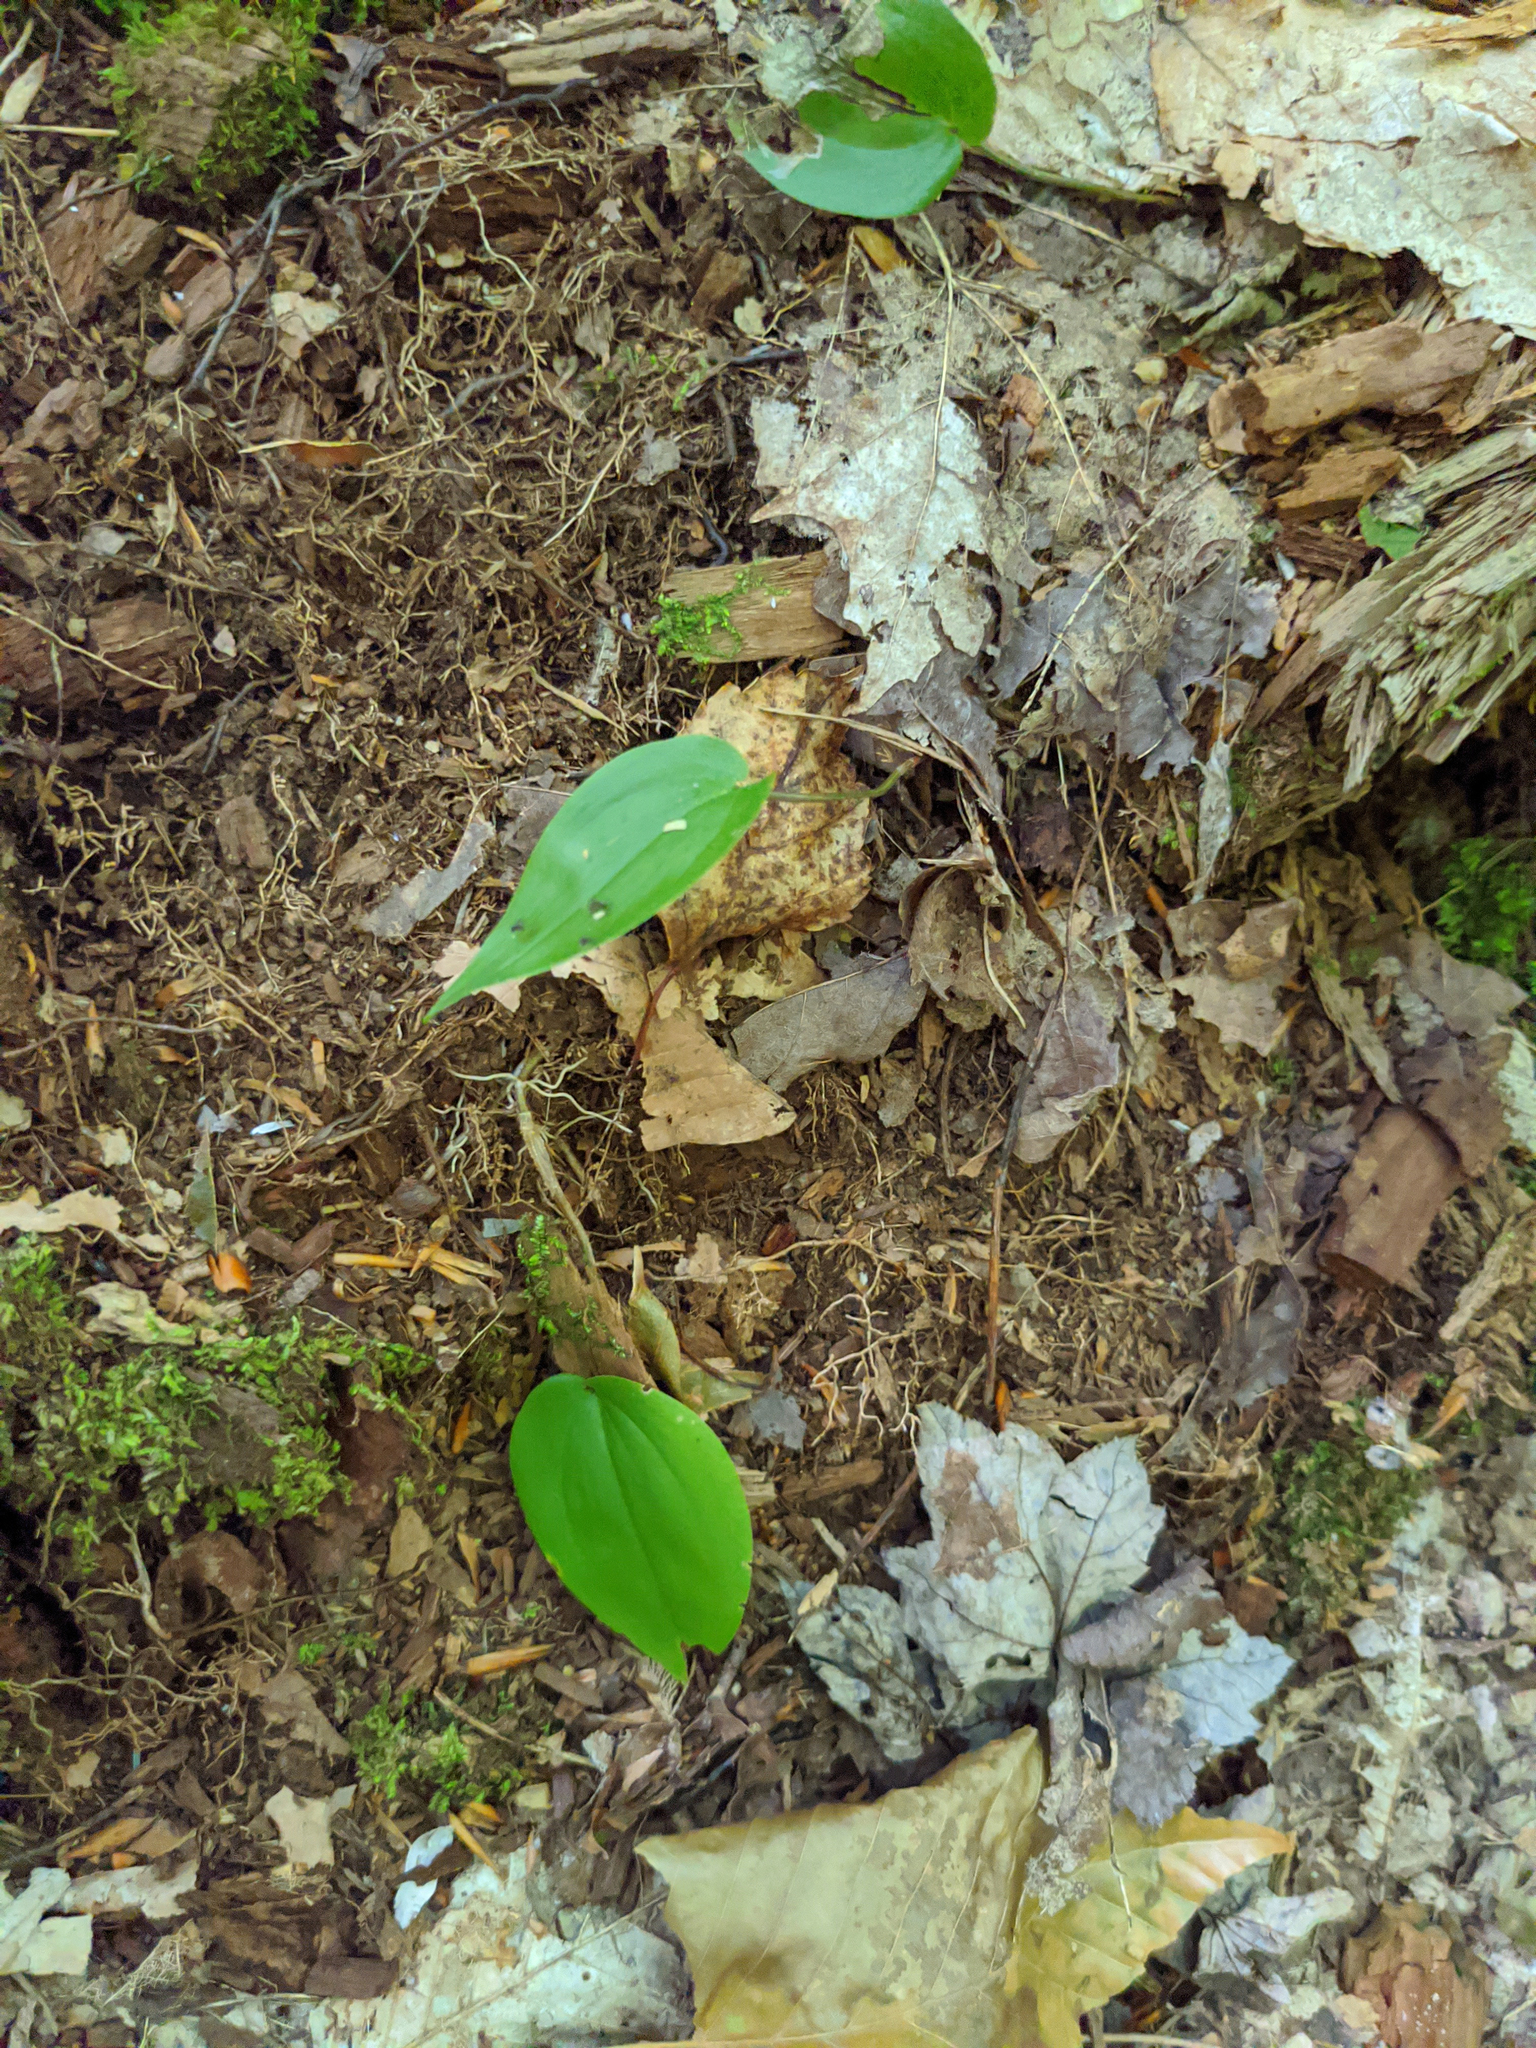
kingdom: Plantae
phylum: Tracheophyta
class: Liliopsida
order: Asparagales
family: Asparagaceae
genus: Maianthemum
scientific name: Maianthemum canadense
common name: False lily-of-the-valley
